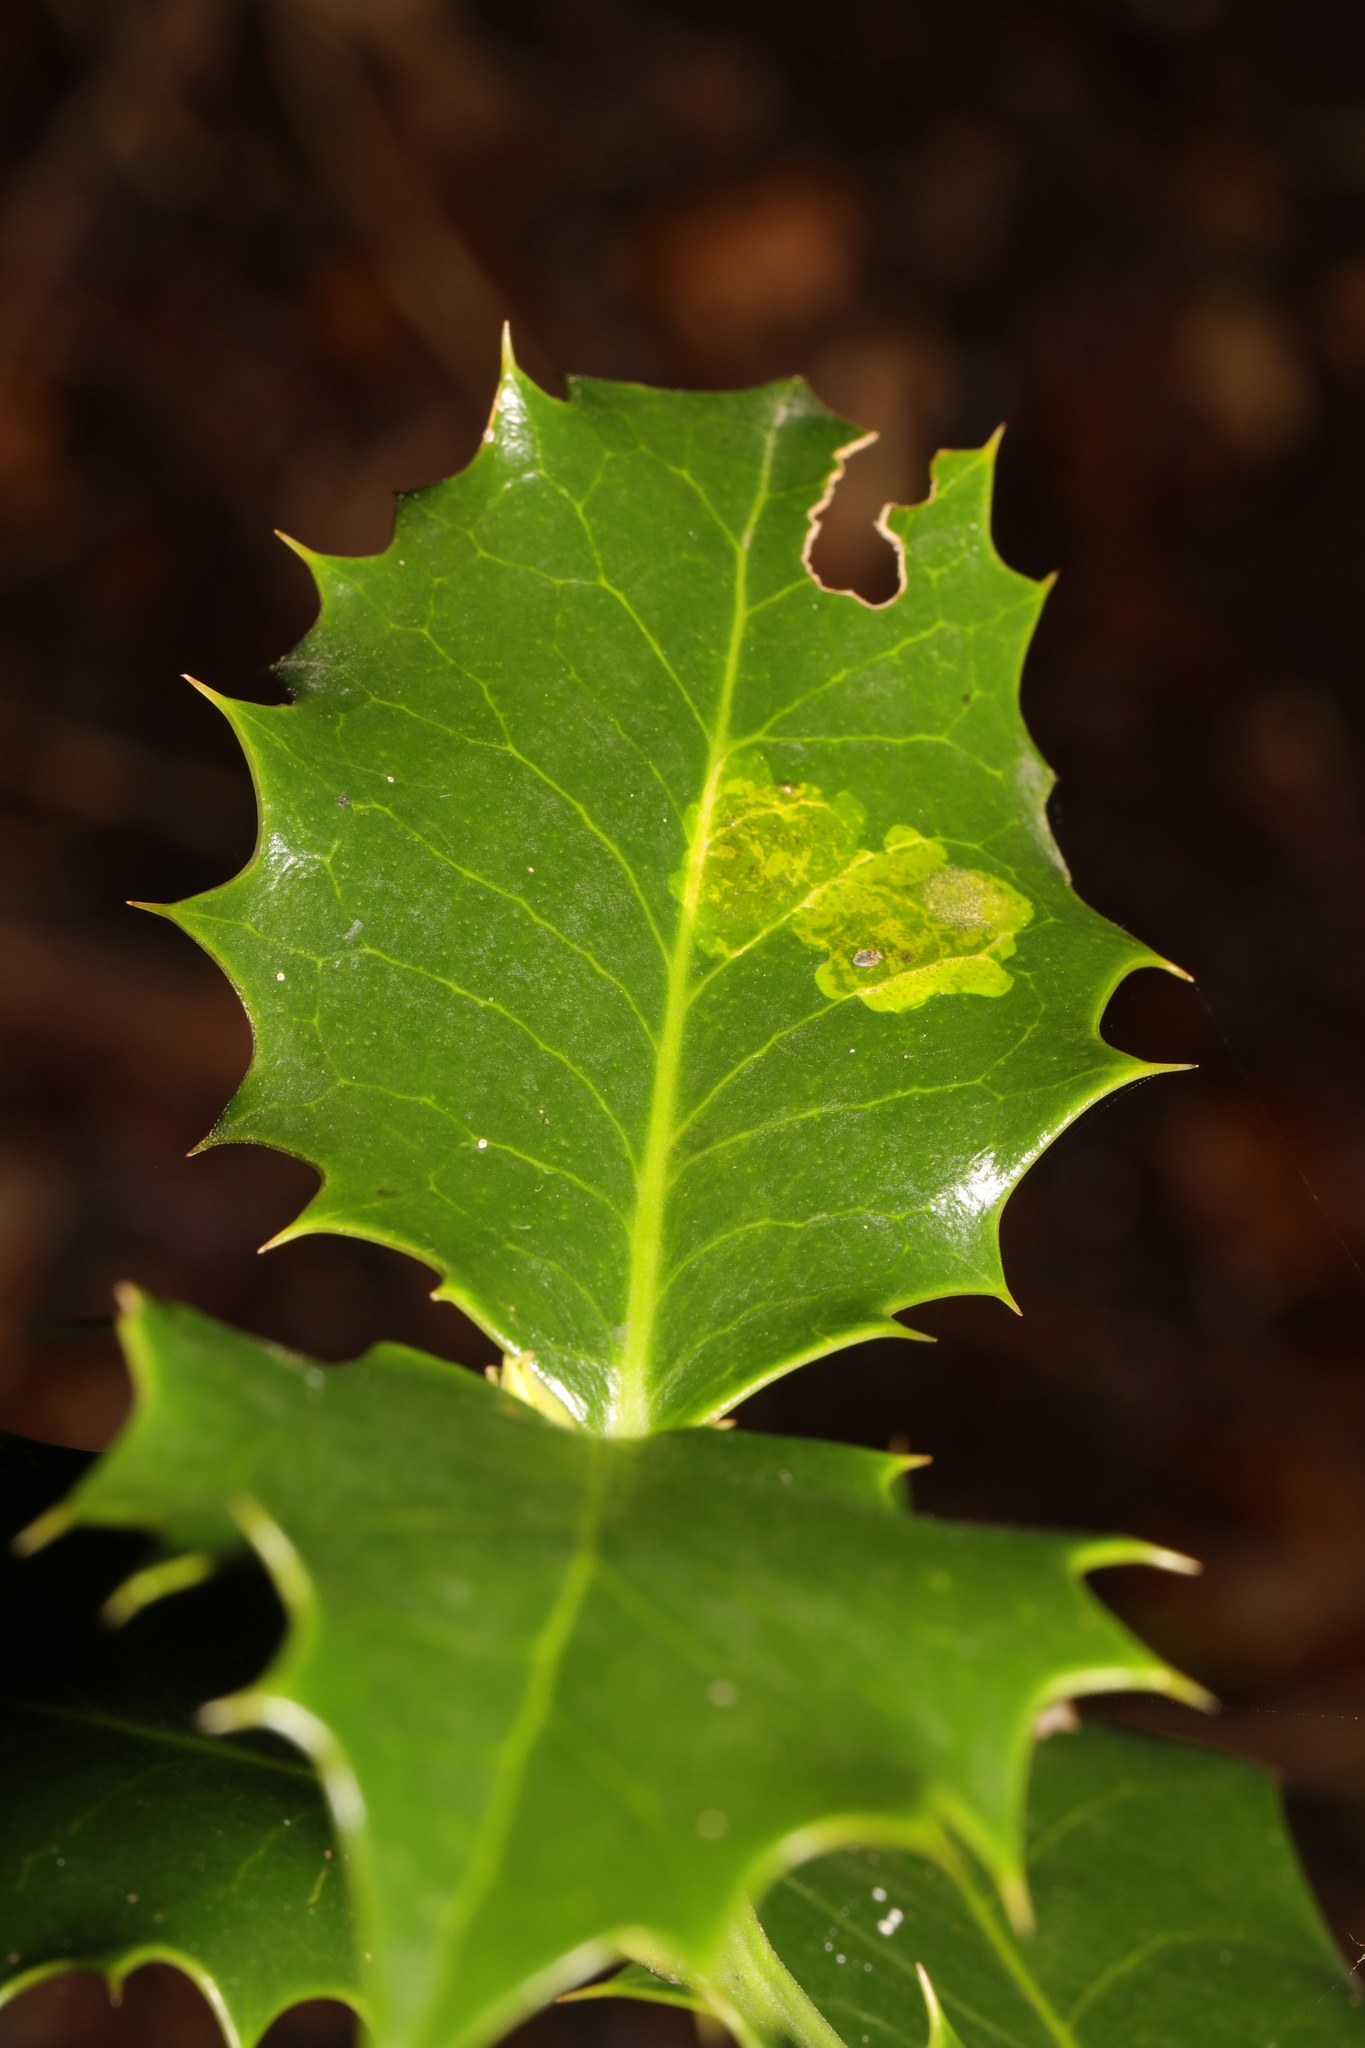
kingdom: Animalia
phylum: Arthropoda
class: Insecta
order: Diptera
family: Agromyzidae
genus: Phytomyza
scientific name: Phytomyza ilicis
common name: Holly leafminer
